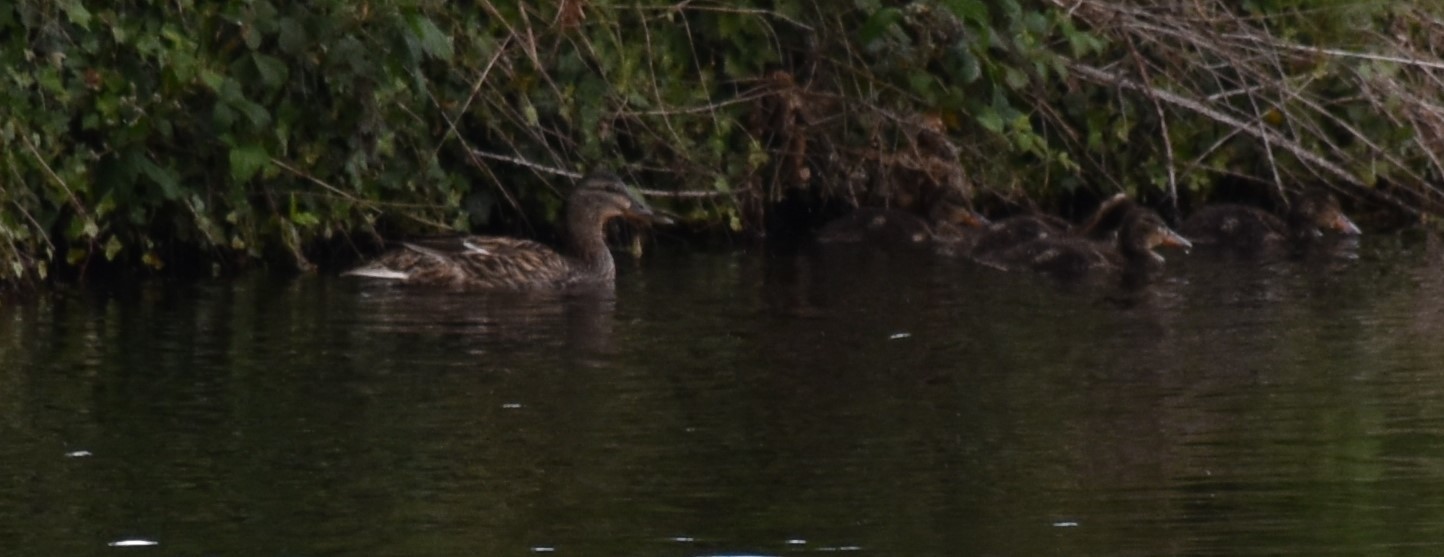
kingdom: Animalia
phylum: Chordata
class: Aves
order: Anseriformes
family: Anatidae
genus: Anas
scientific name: Anas platyrhynchos
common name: Mallard
